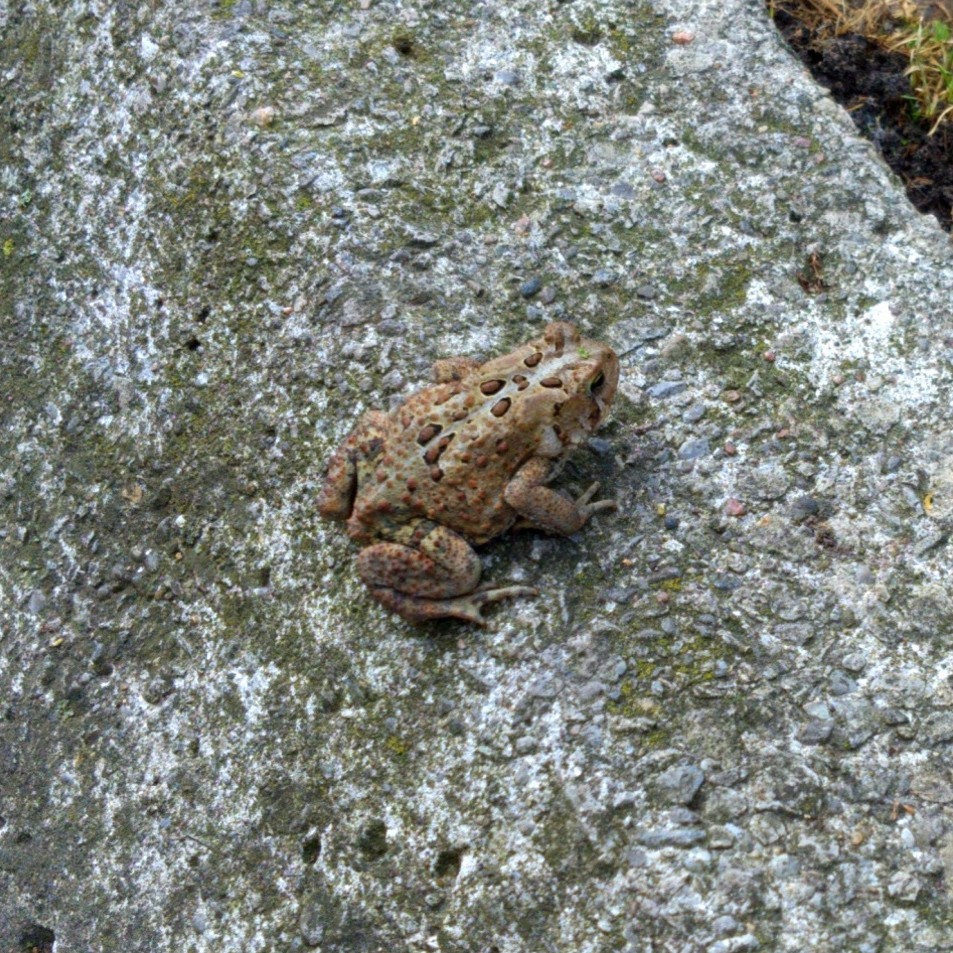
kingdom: Animalia
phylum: Chordata
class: Amphibia
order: Anura
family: Bufonidae
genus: Anaxyrus
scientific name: Anaxyrus americanus
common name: American toad
